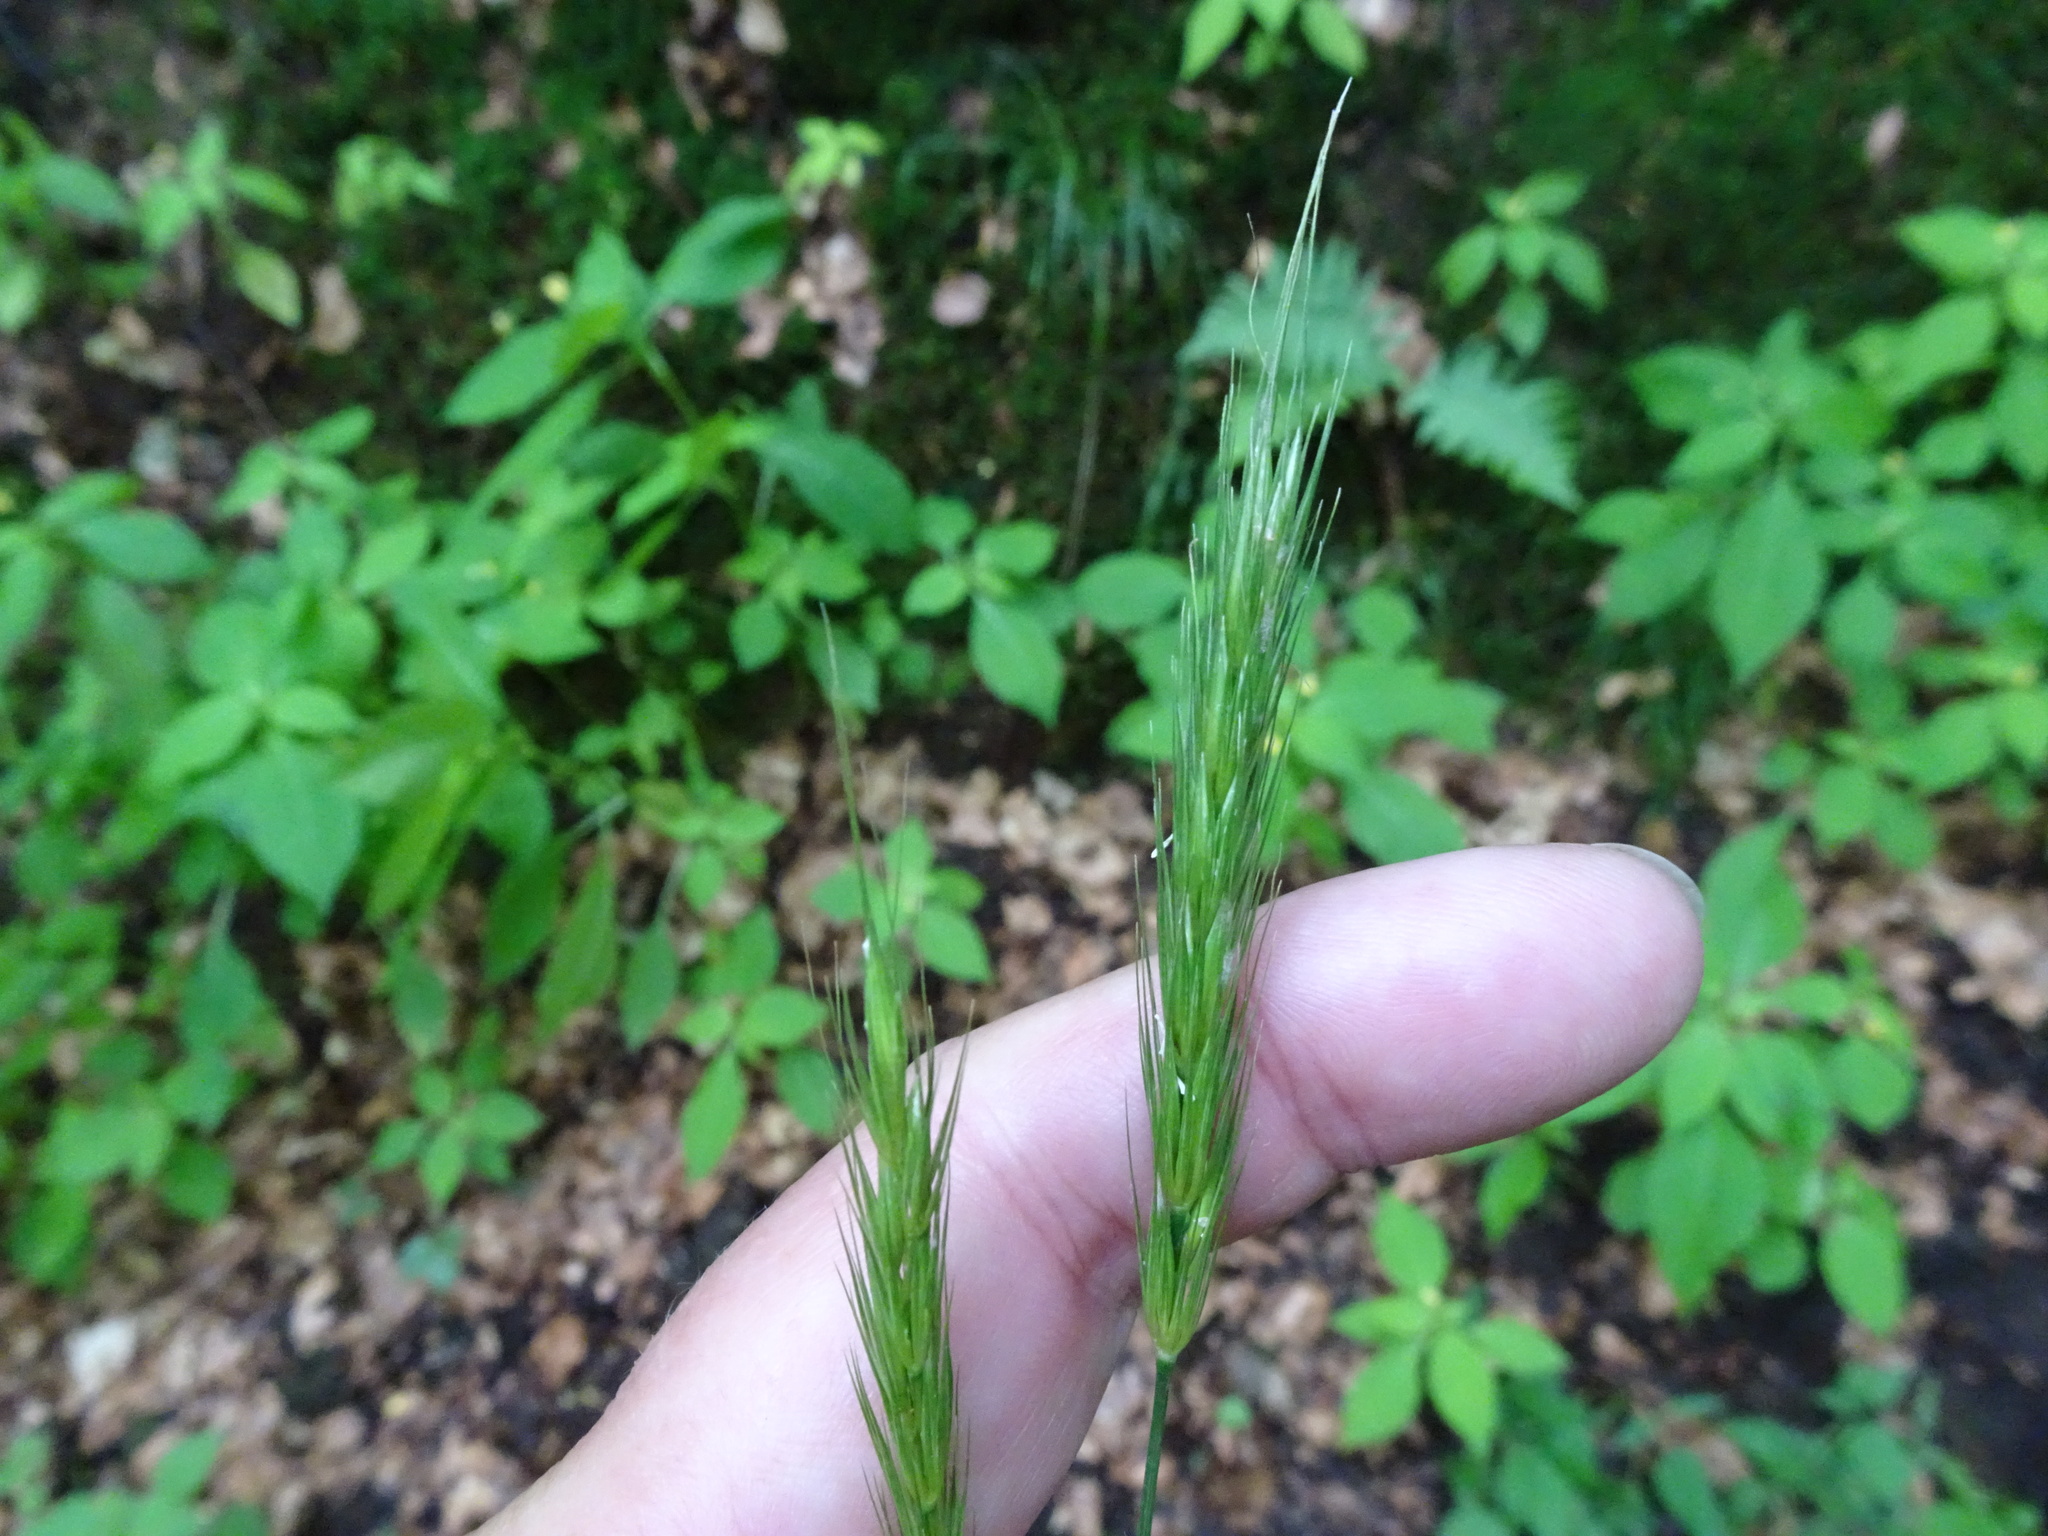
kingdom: Plantae
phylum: Tracheophyta
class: Liliopsida
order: Poales
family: Poaceae
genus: Hordelymus
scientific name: Hordelymus europaeus
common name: Wood-barley
